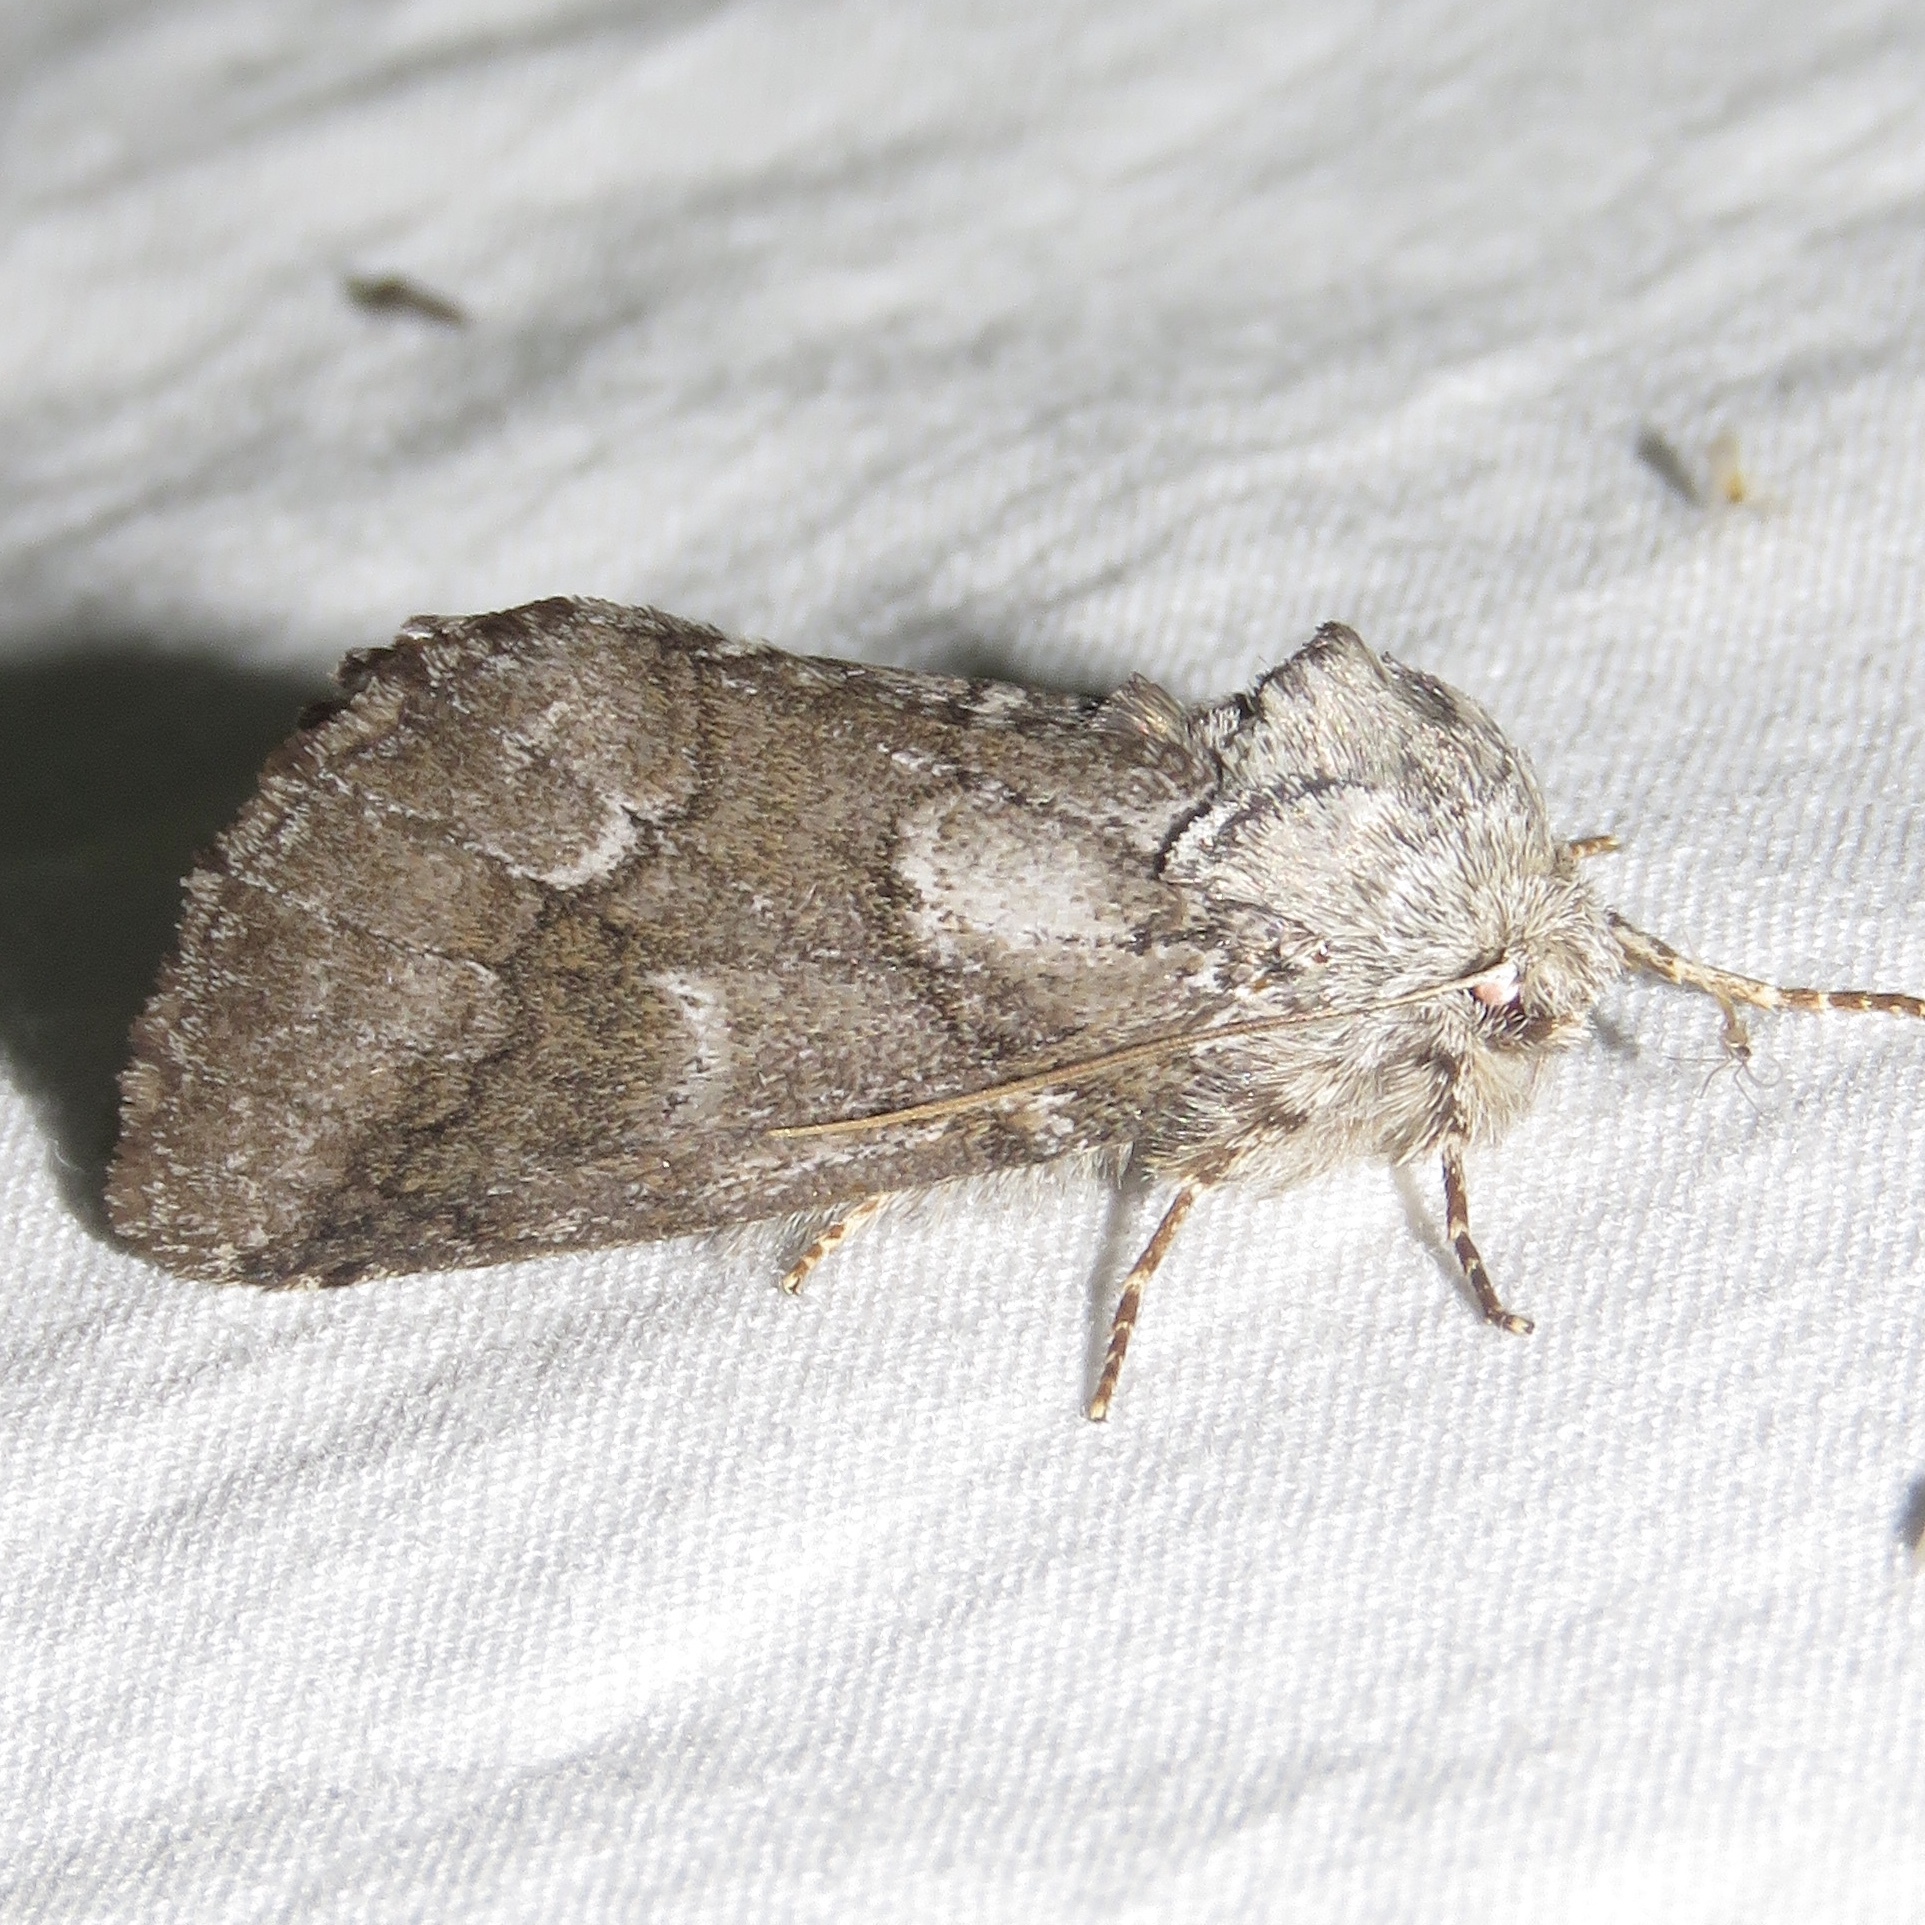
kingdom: Animalia
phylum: Arthropoda
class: Insecta
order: Lepidoptera
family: Notodontidae
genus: Lochmaeus
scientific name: Lochmaeus bilineata
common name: Double-lined prominent
